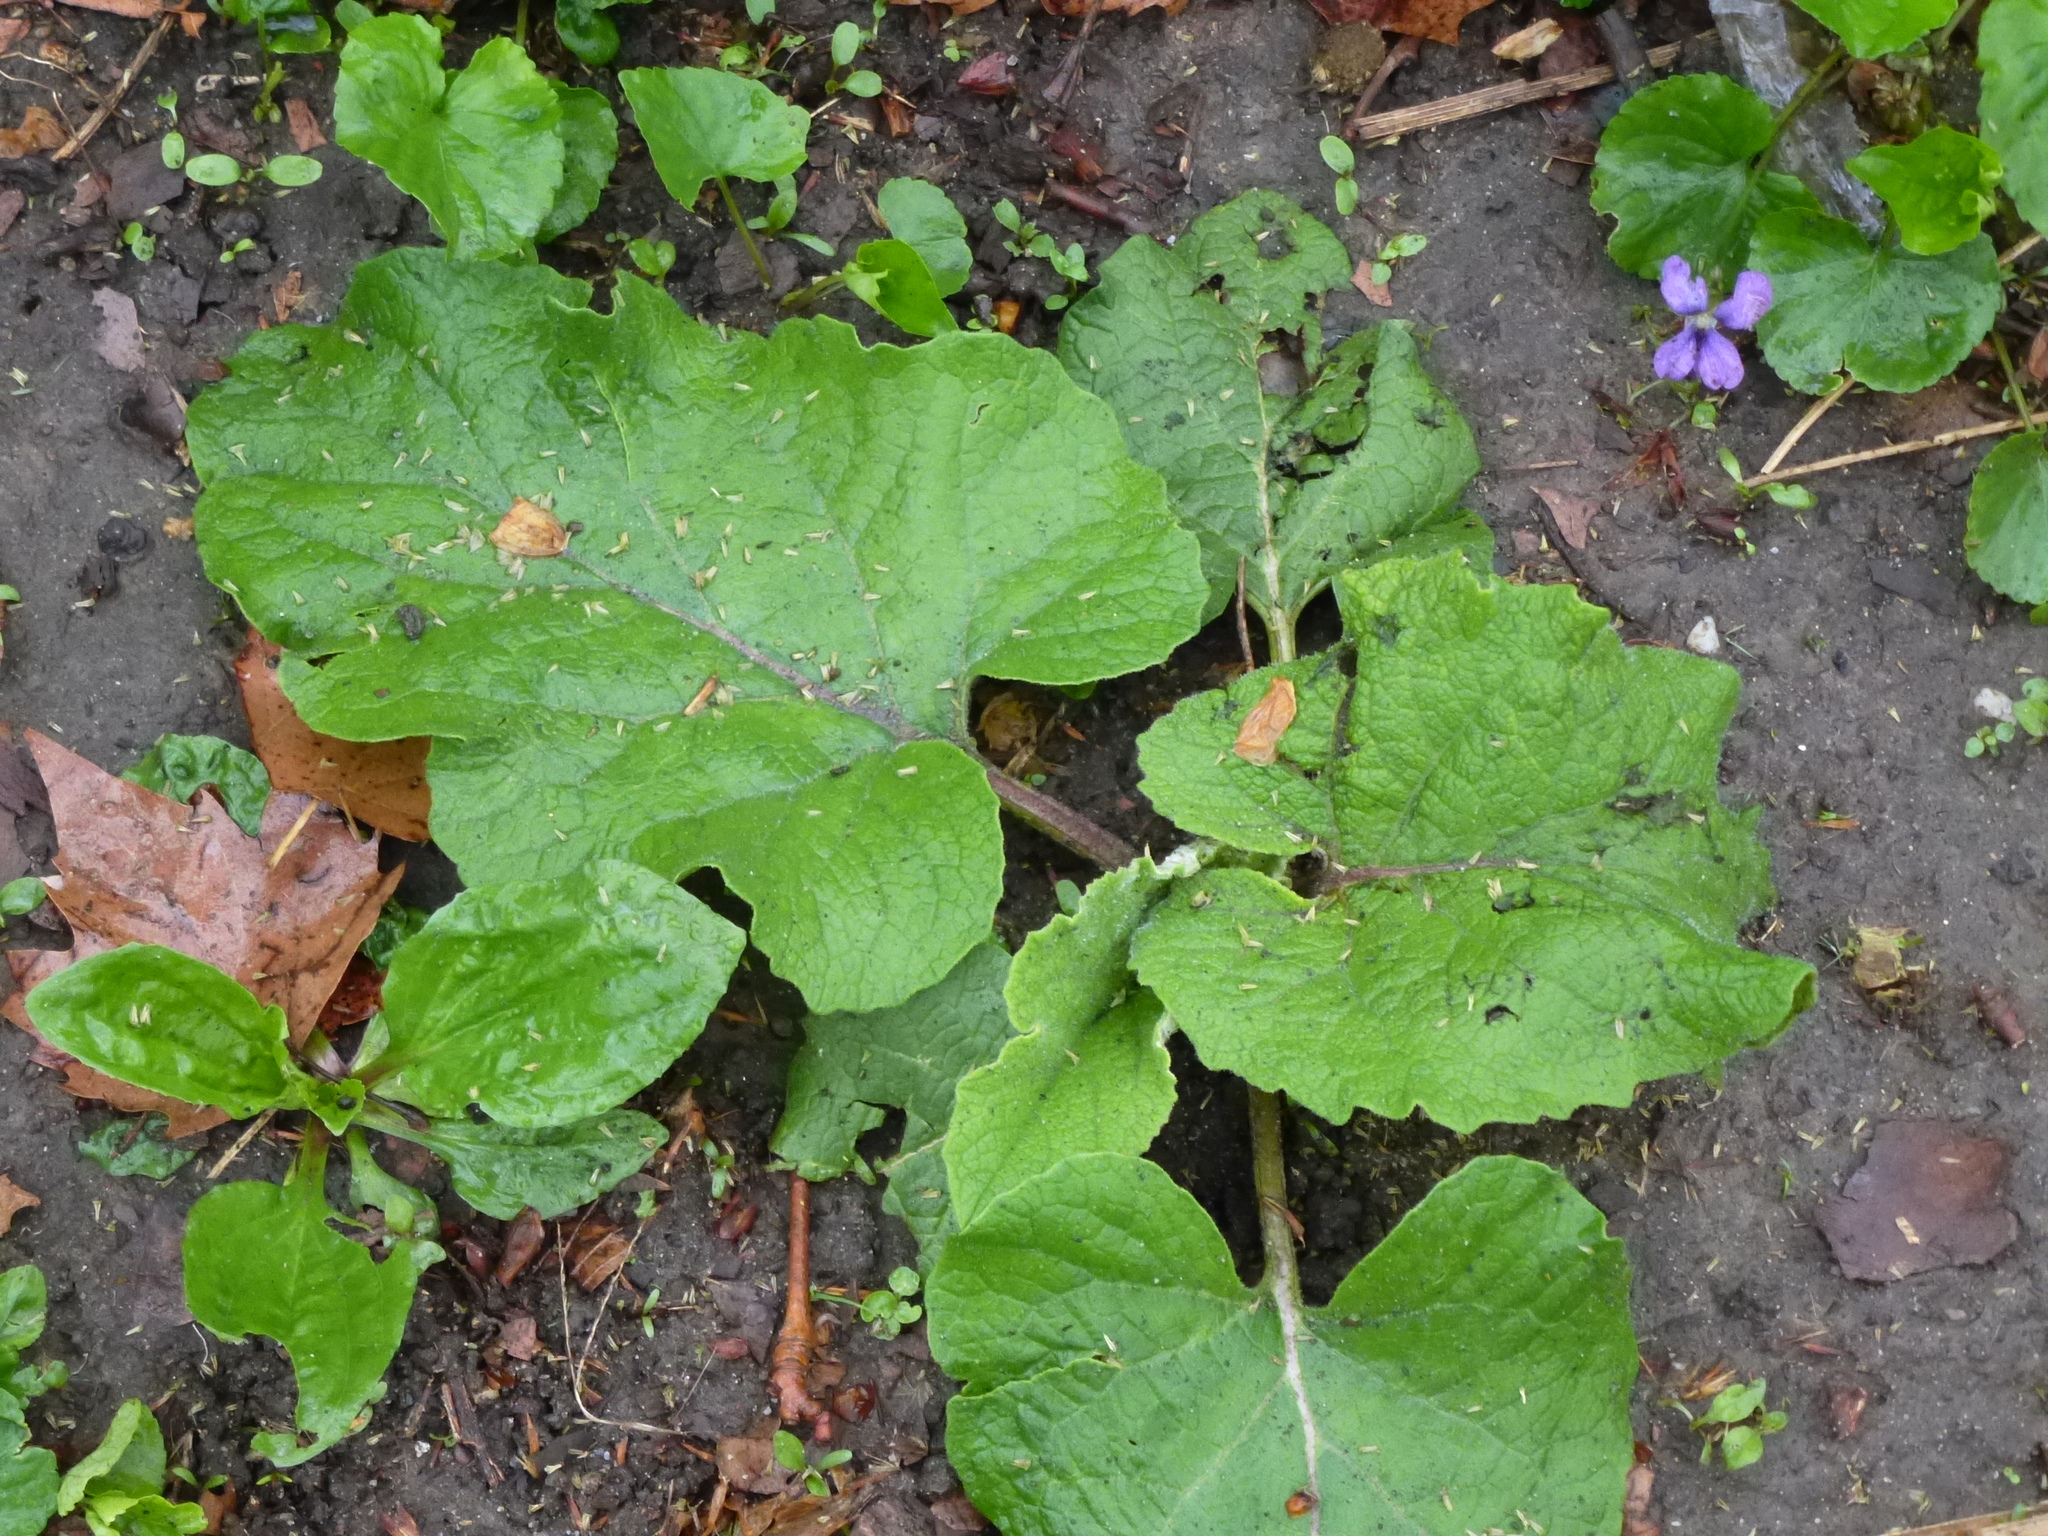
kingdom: Plantae
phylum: Tracheophyta
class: Magnoliopsida
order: Asterales
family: Asteraceae
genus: Arctium
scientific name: Arctium
